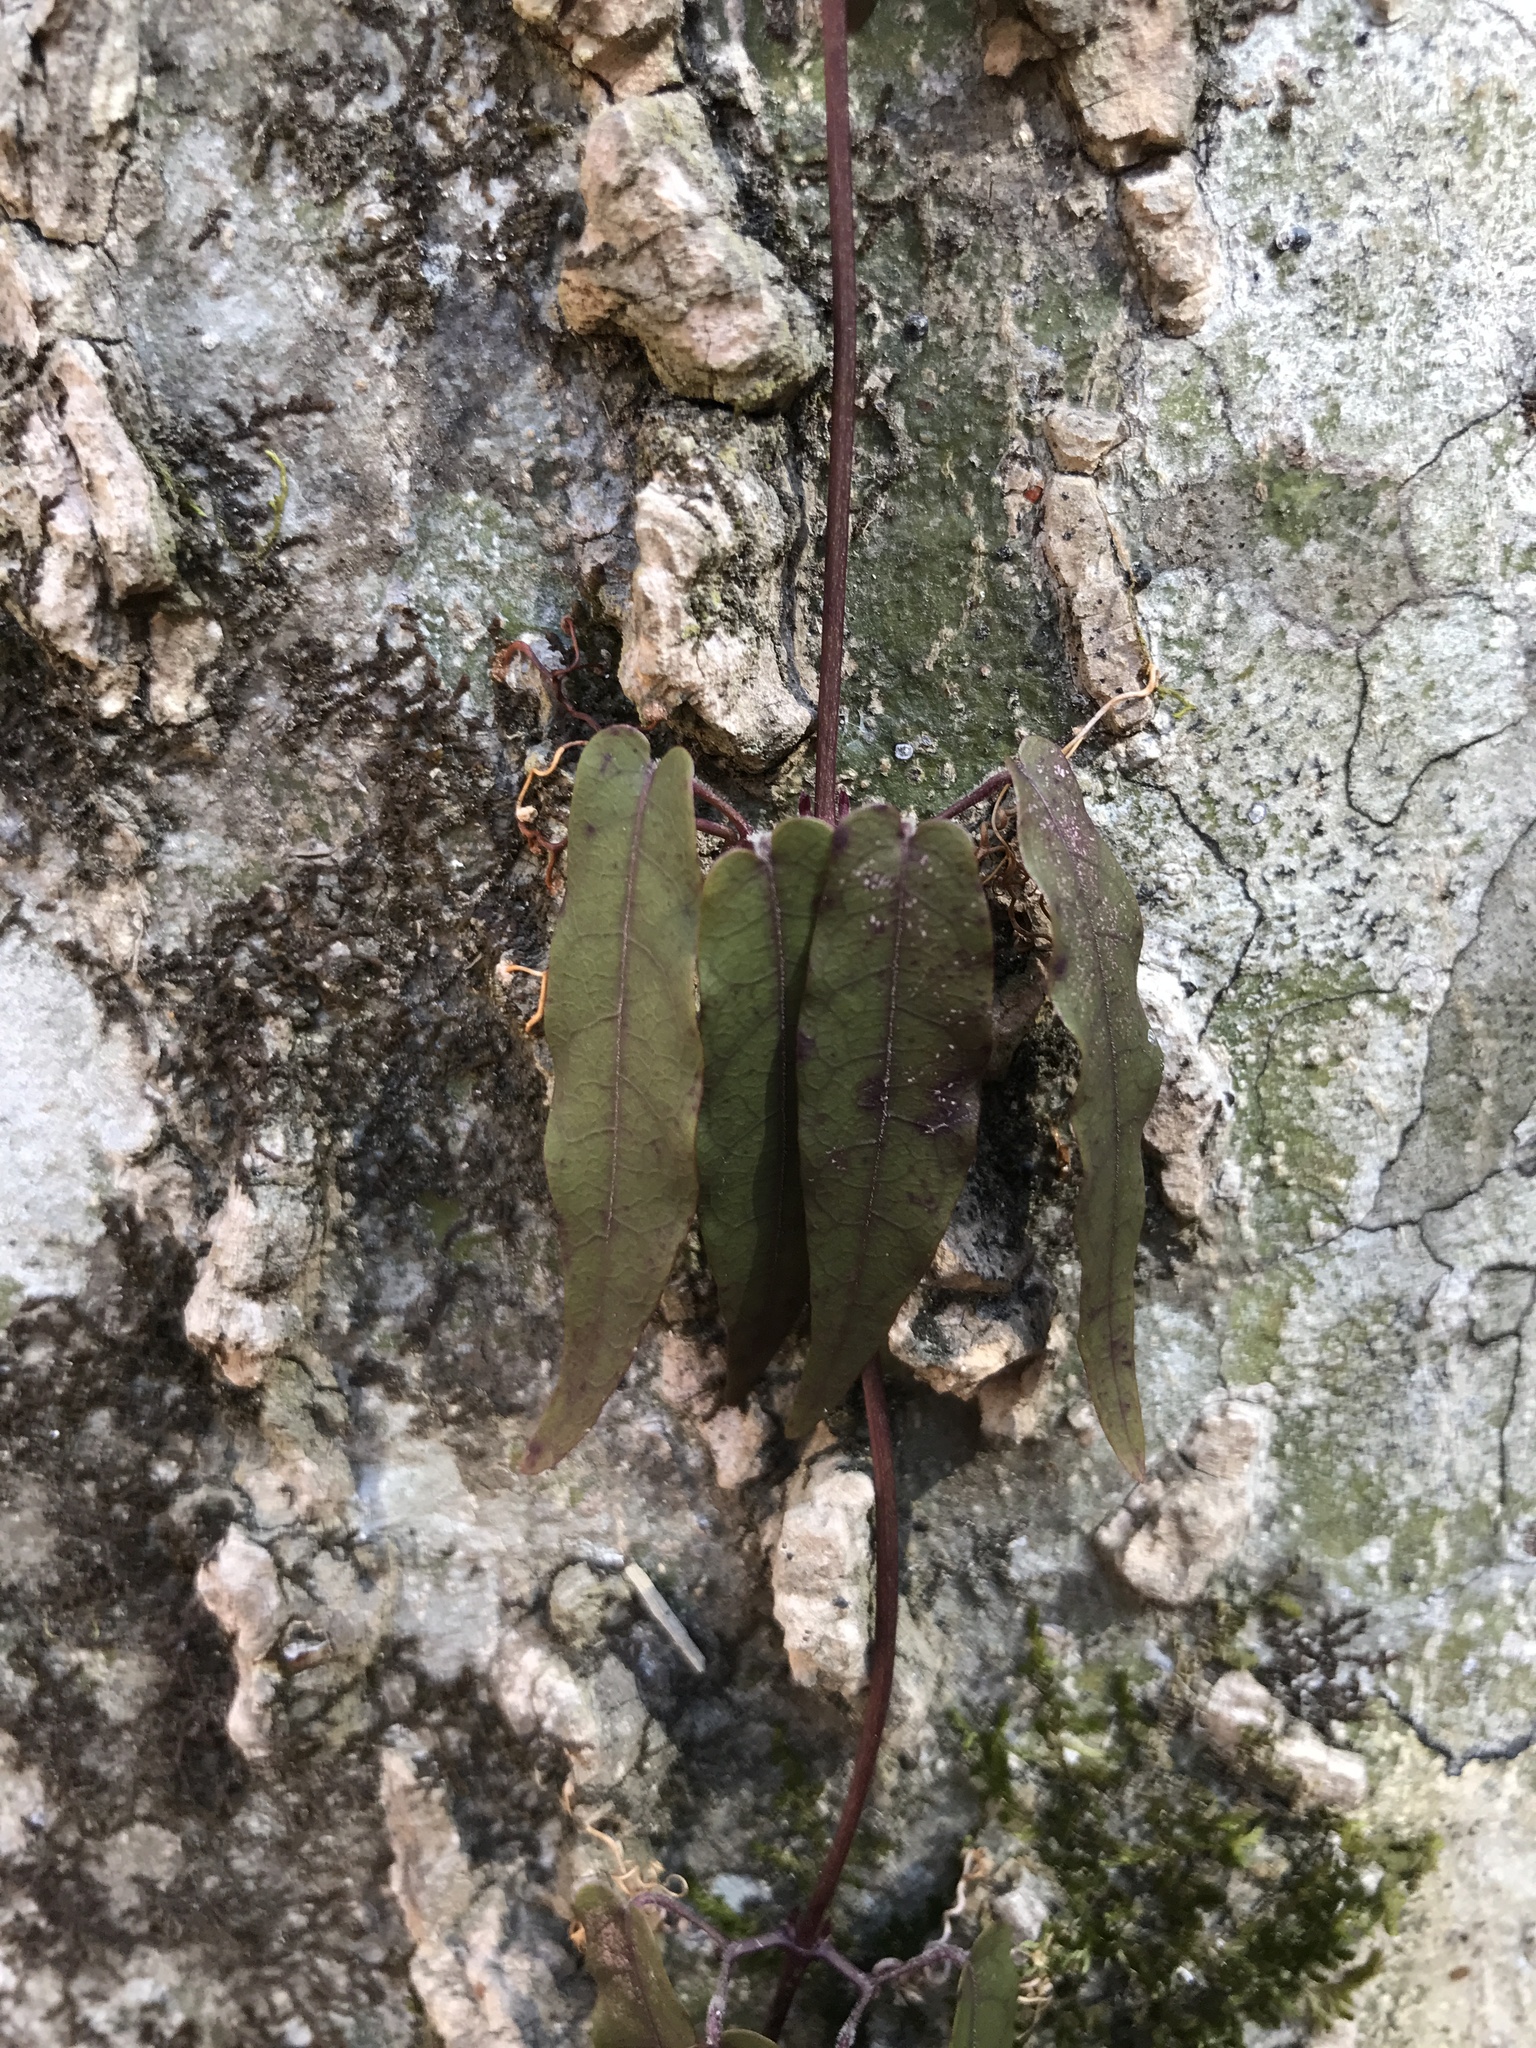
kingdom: Plantae
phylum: Tracheophyta
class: Magnoliopsida
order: Lamiales
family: Bignoniaceae
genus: Bignonia
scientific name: Bignonia capreolata
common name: Crossvine
